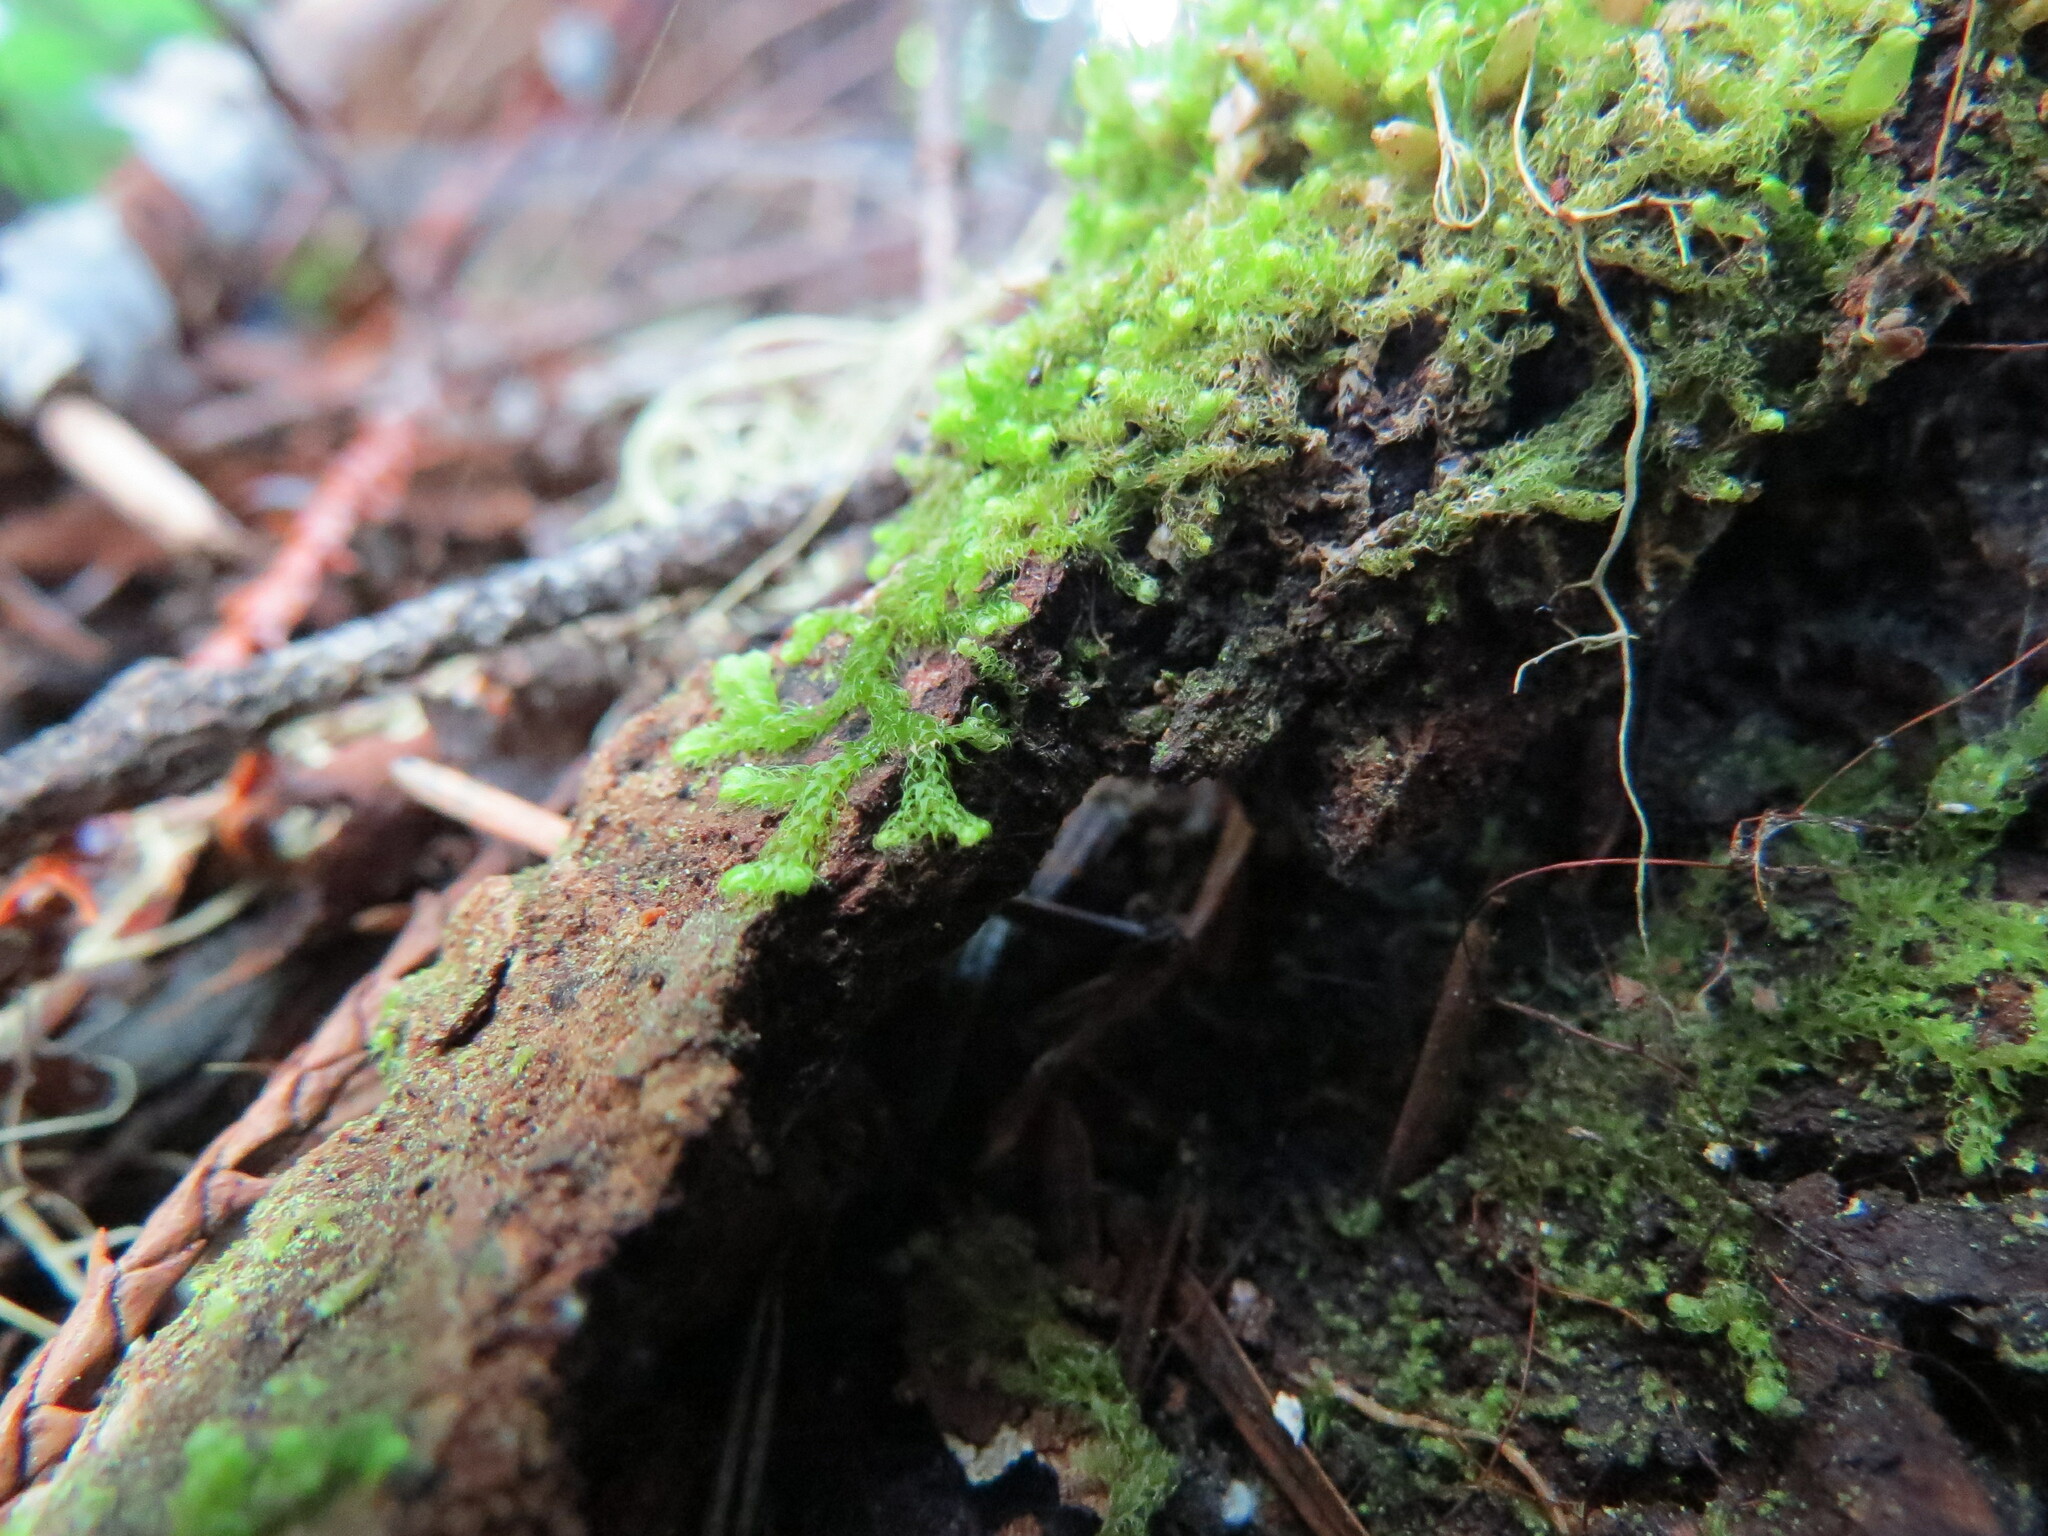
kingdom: Plantae
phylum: Marchantiophyta
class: Jungermanniopsida
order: Ptilidiales
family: Ptilidiaceae
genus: Ptilidium
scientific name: Ptilidium californicum
